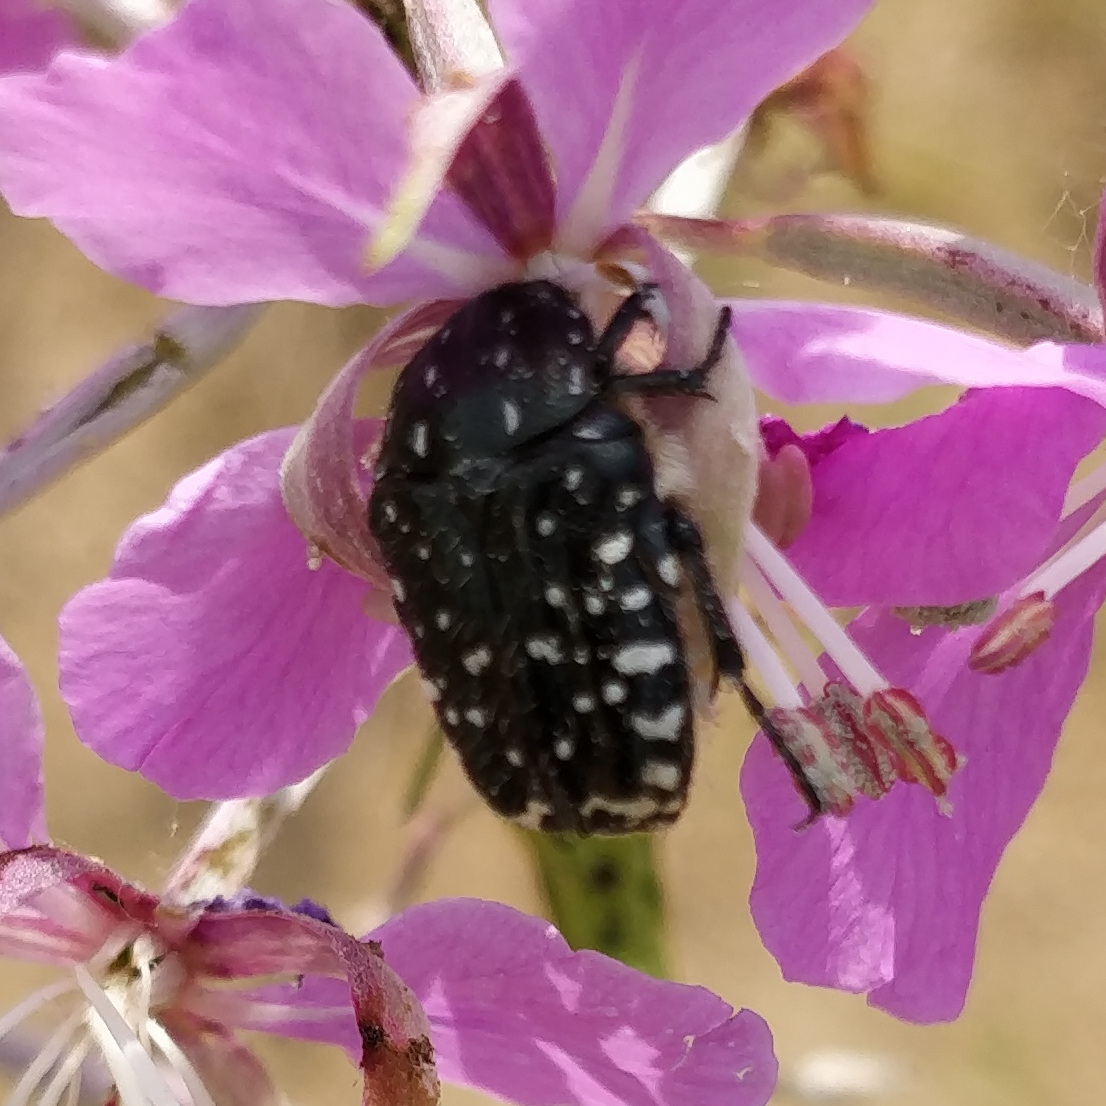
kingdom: Animalia
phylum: Arthropoda
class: Insecta
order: Coleoptera
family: Scarabaeidae
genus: Oxythyrea
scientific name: Oxythyrea funesta
